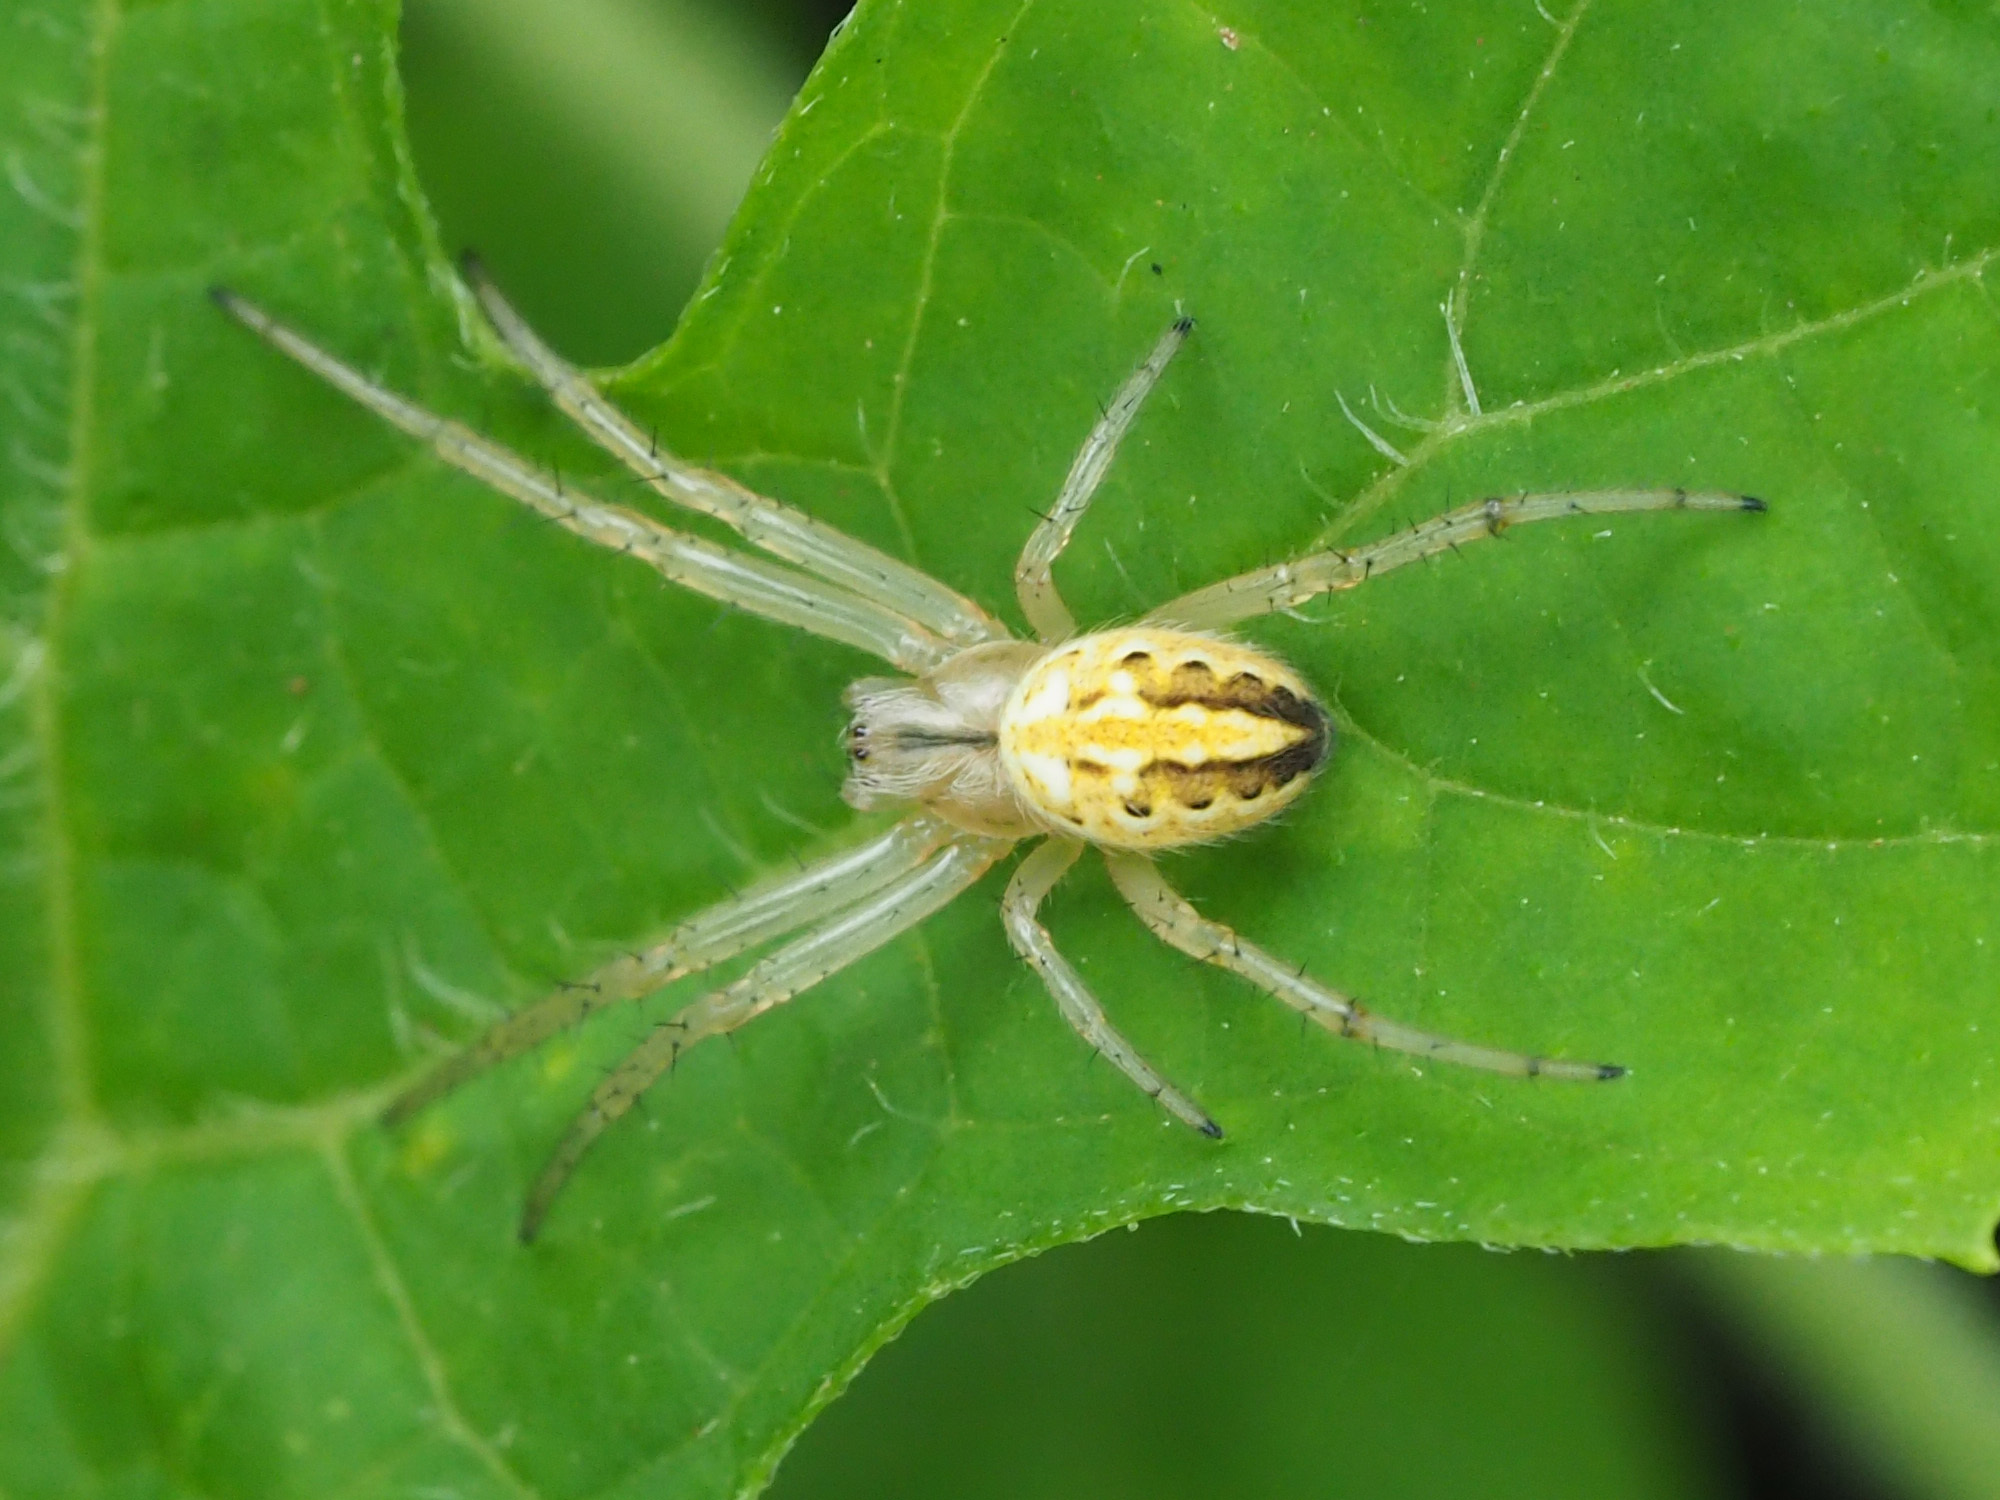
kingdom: Animalia
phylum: Arthropoda
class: Arachnida
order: Araneae
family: Araneidae
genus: Neoscona
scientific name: Neoscona oaxacensis
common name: Orb weavers
